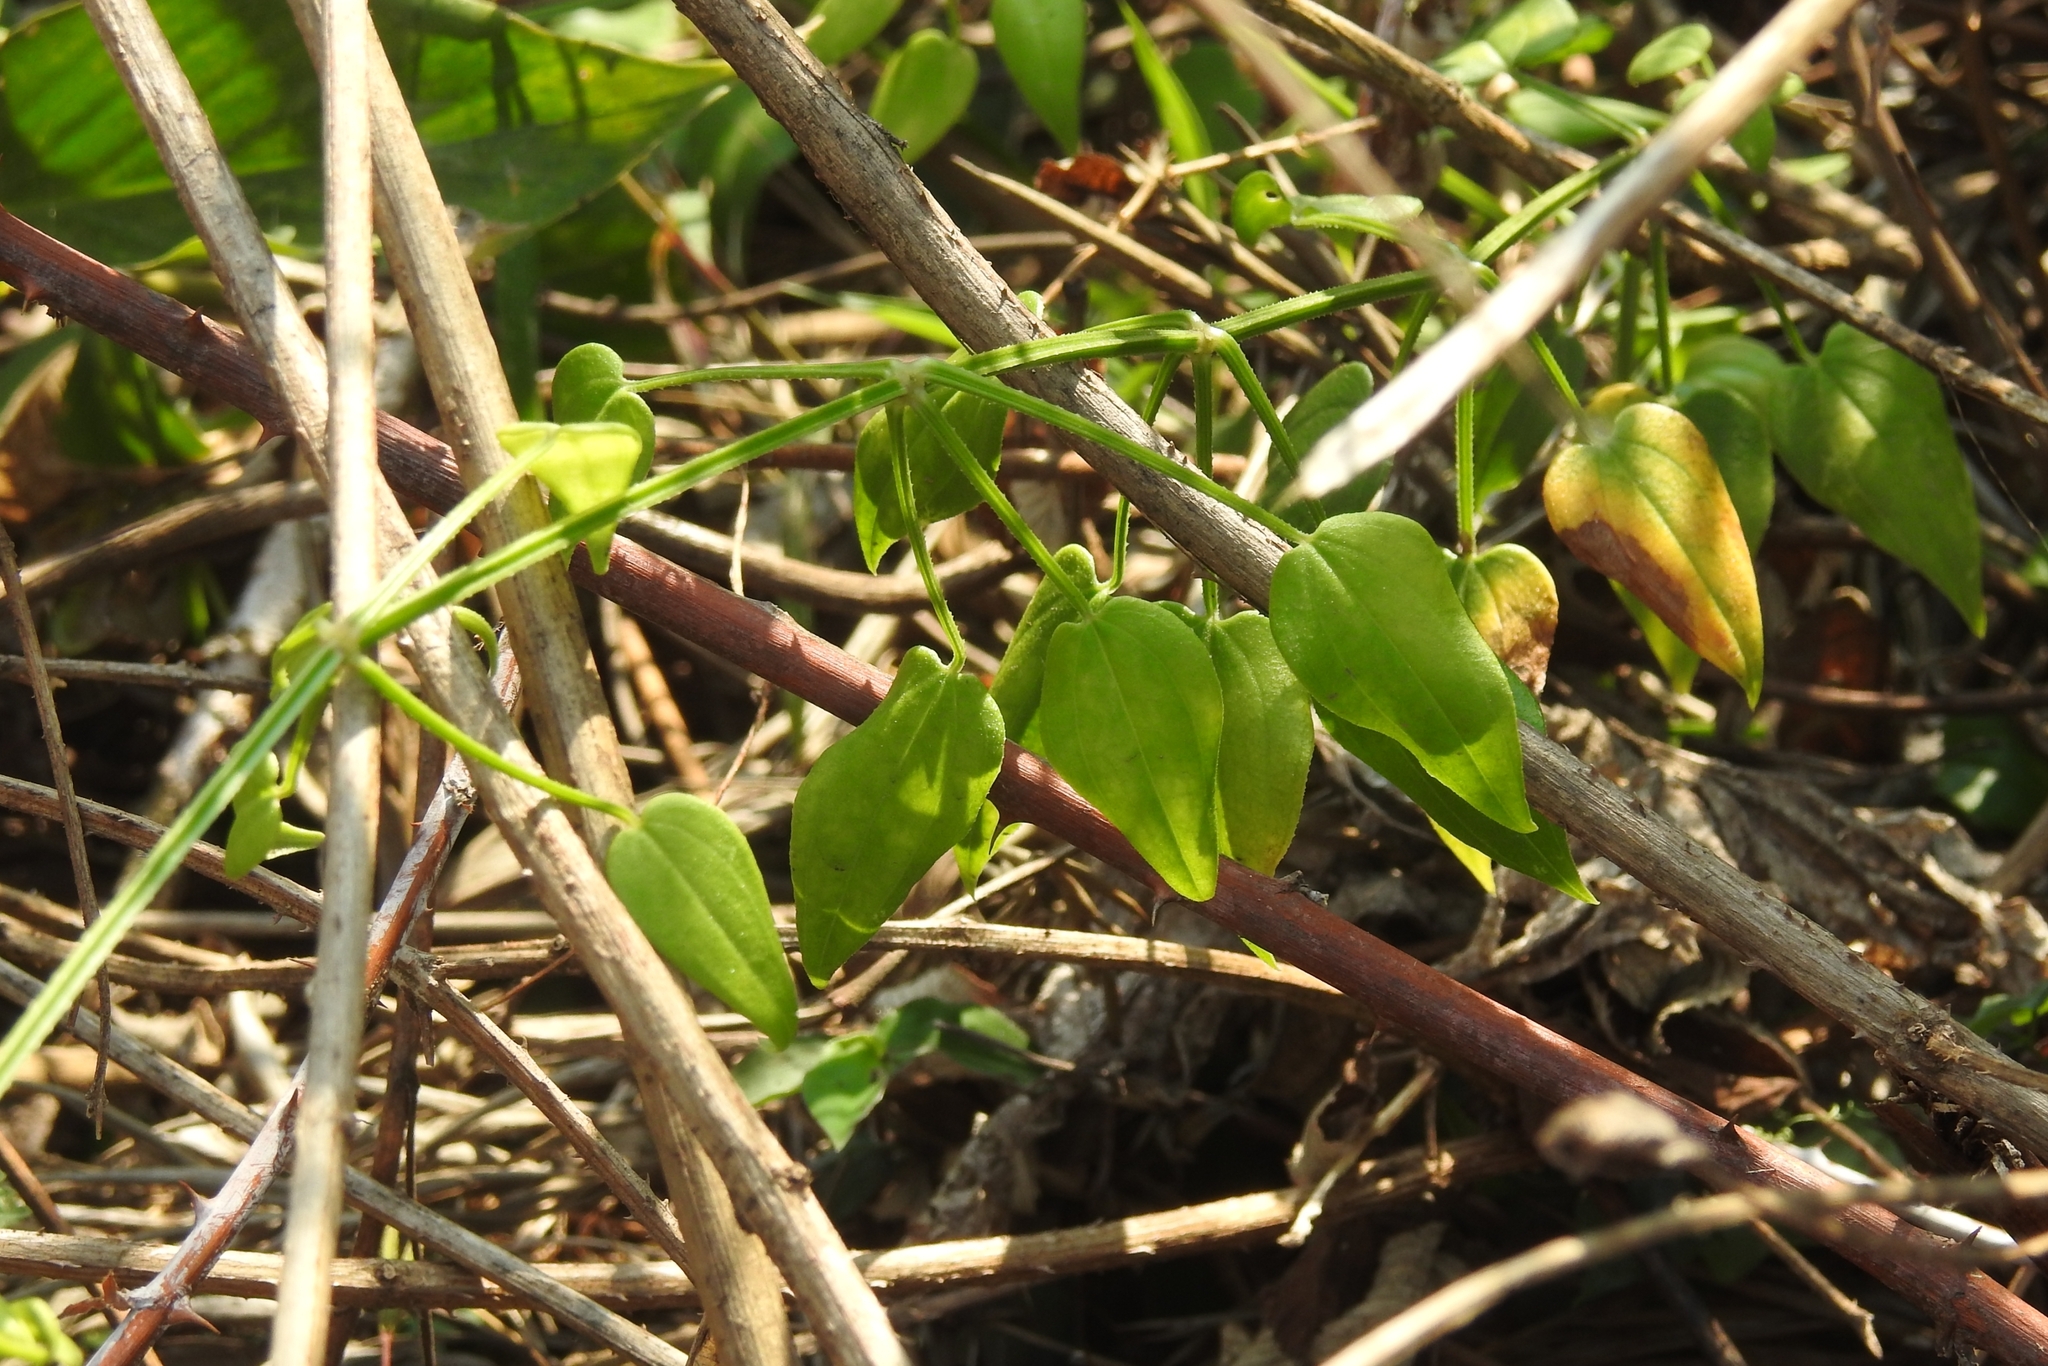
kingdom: Plantae
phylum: Tracheophyta
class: Magnoliopsida
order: Gentianales
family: Rubiaceae
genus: Rubia
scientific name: Rubia cordifolia
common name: Indian madder
